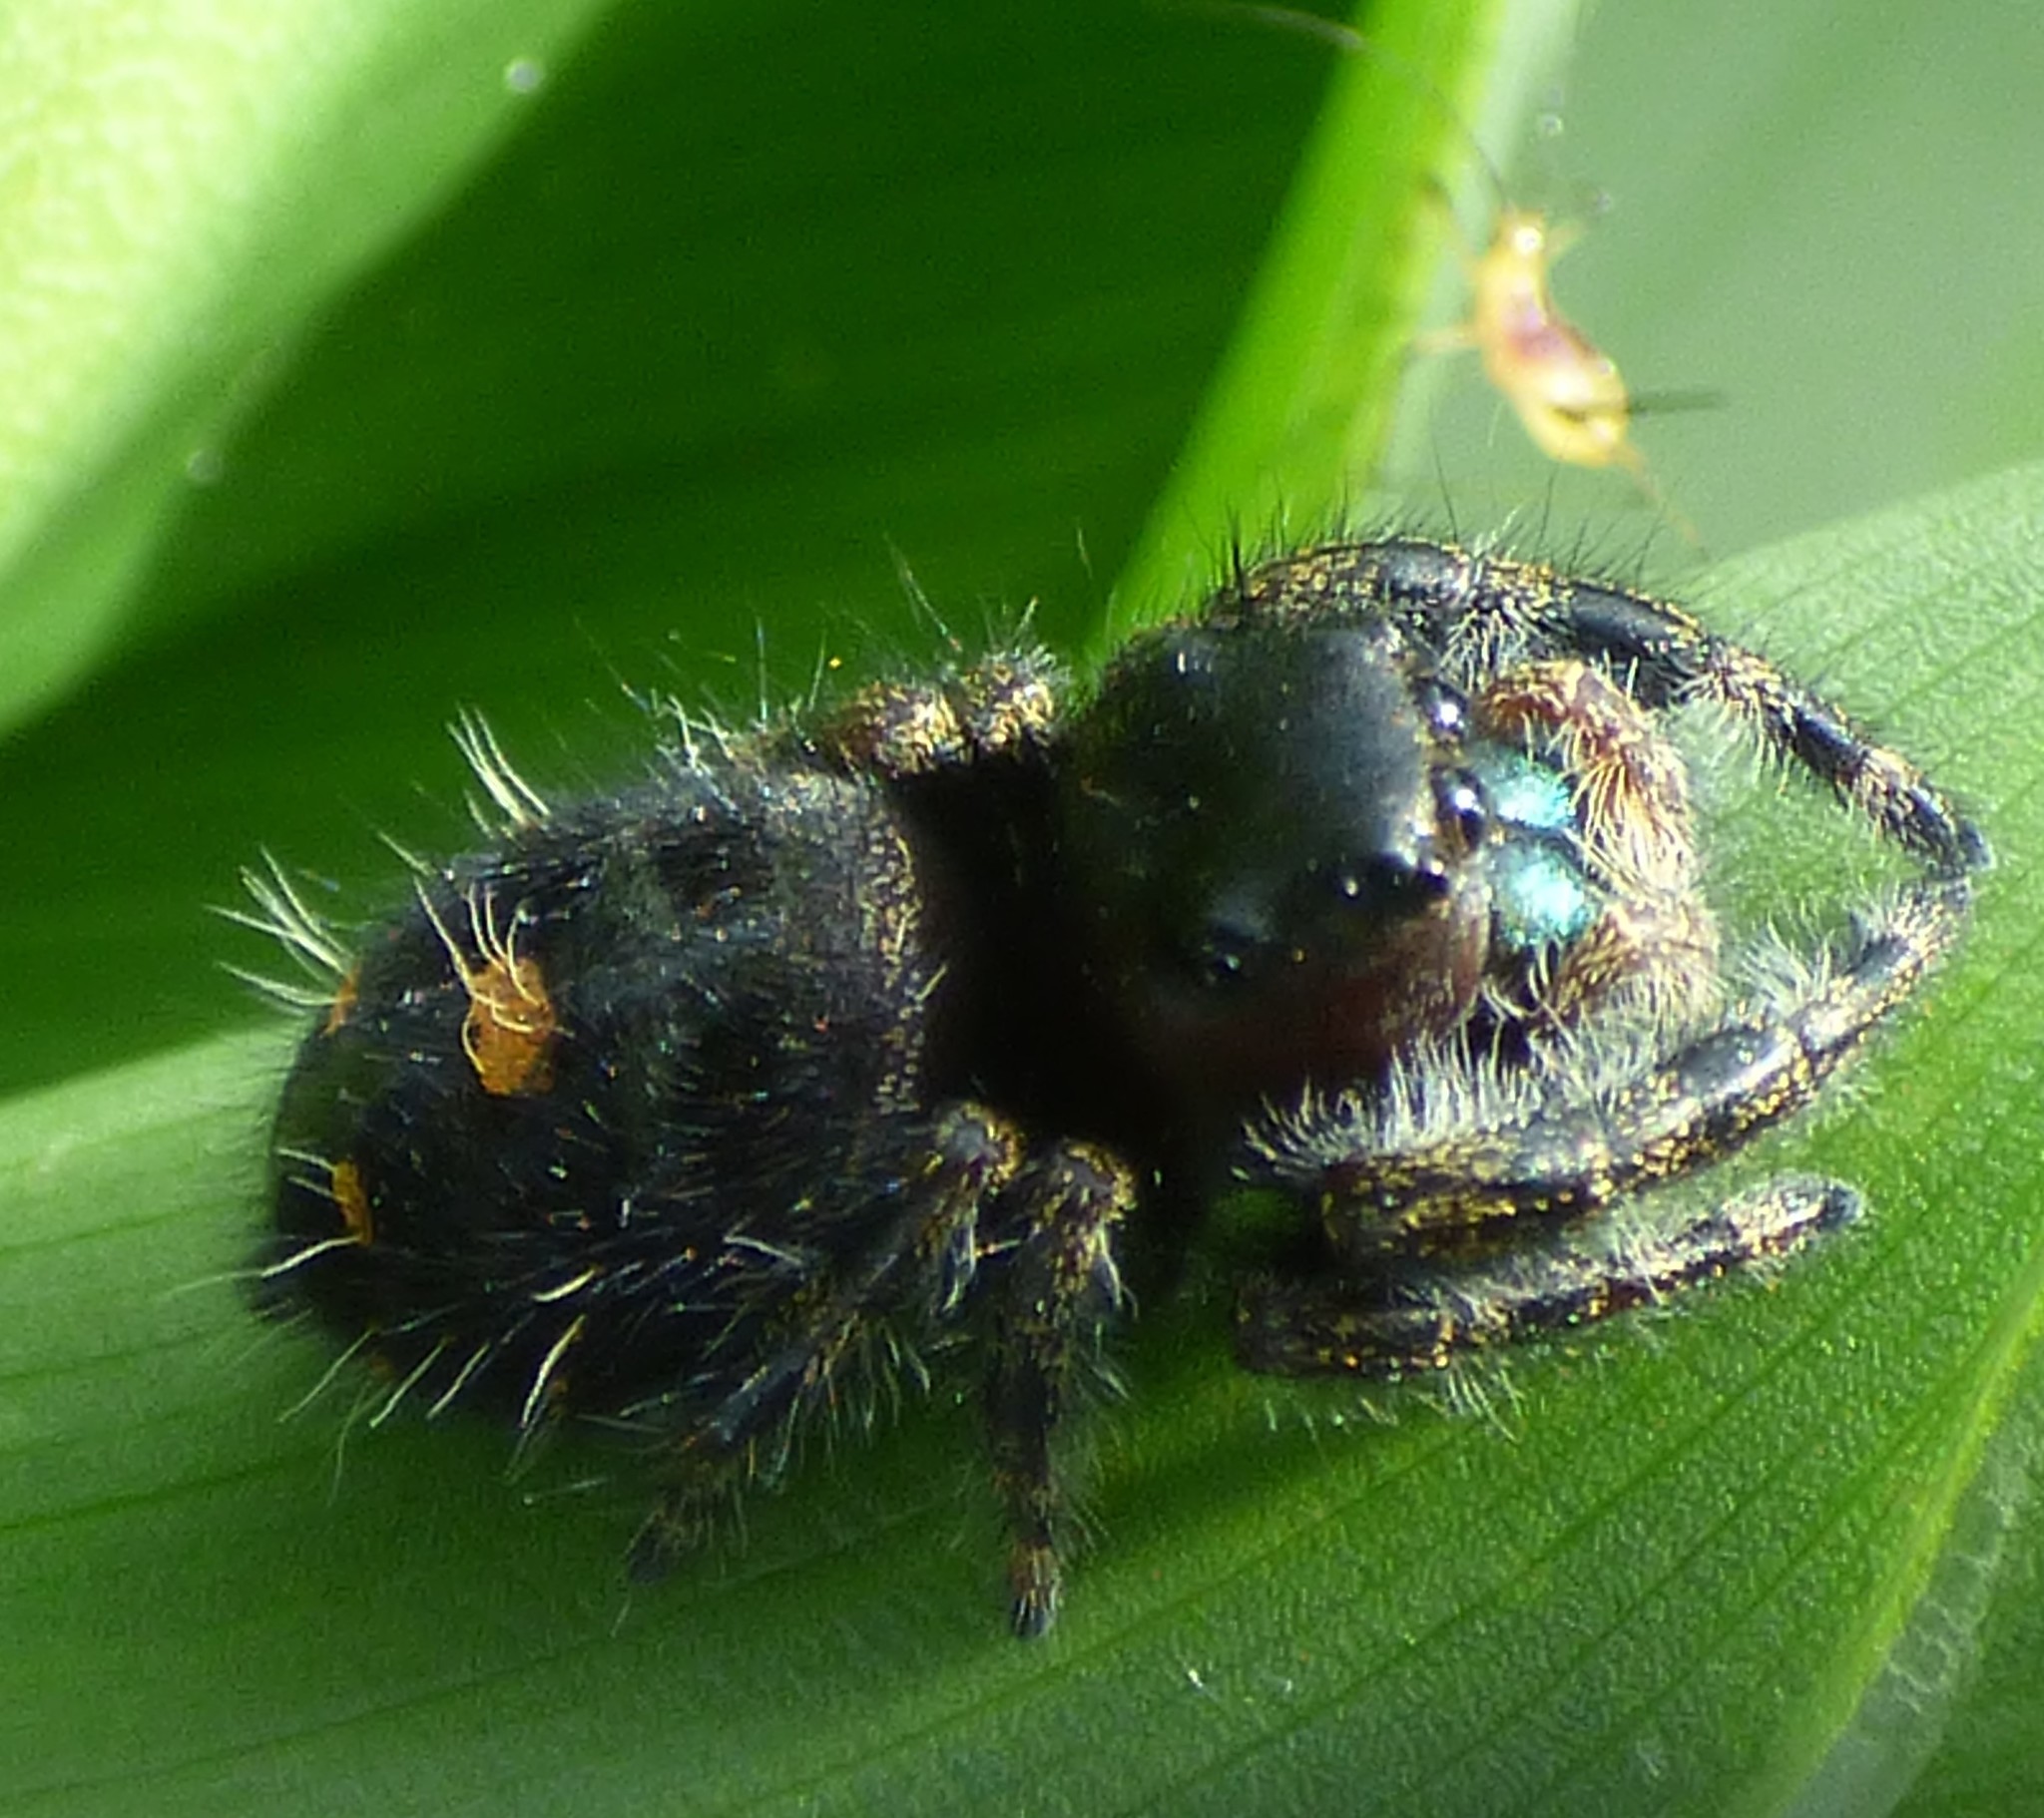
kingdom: Animalia
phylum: Arthropoda
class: Arachnida
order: Araneae
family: Salticidae
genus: Phidippus
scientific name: Phidippus audax
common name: Bold jumper
